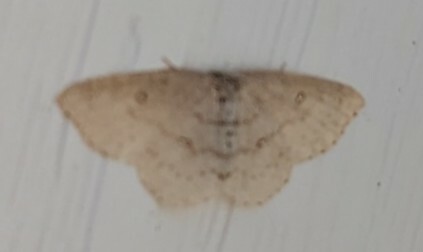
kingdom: Animalia
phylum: Arthropoda
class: Insecta
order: Lepidoptera
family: Geometridae
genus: Cyclophora
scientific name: Cyclophora pendulinaria
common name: Sweet fern geometer
